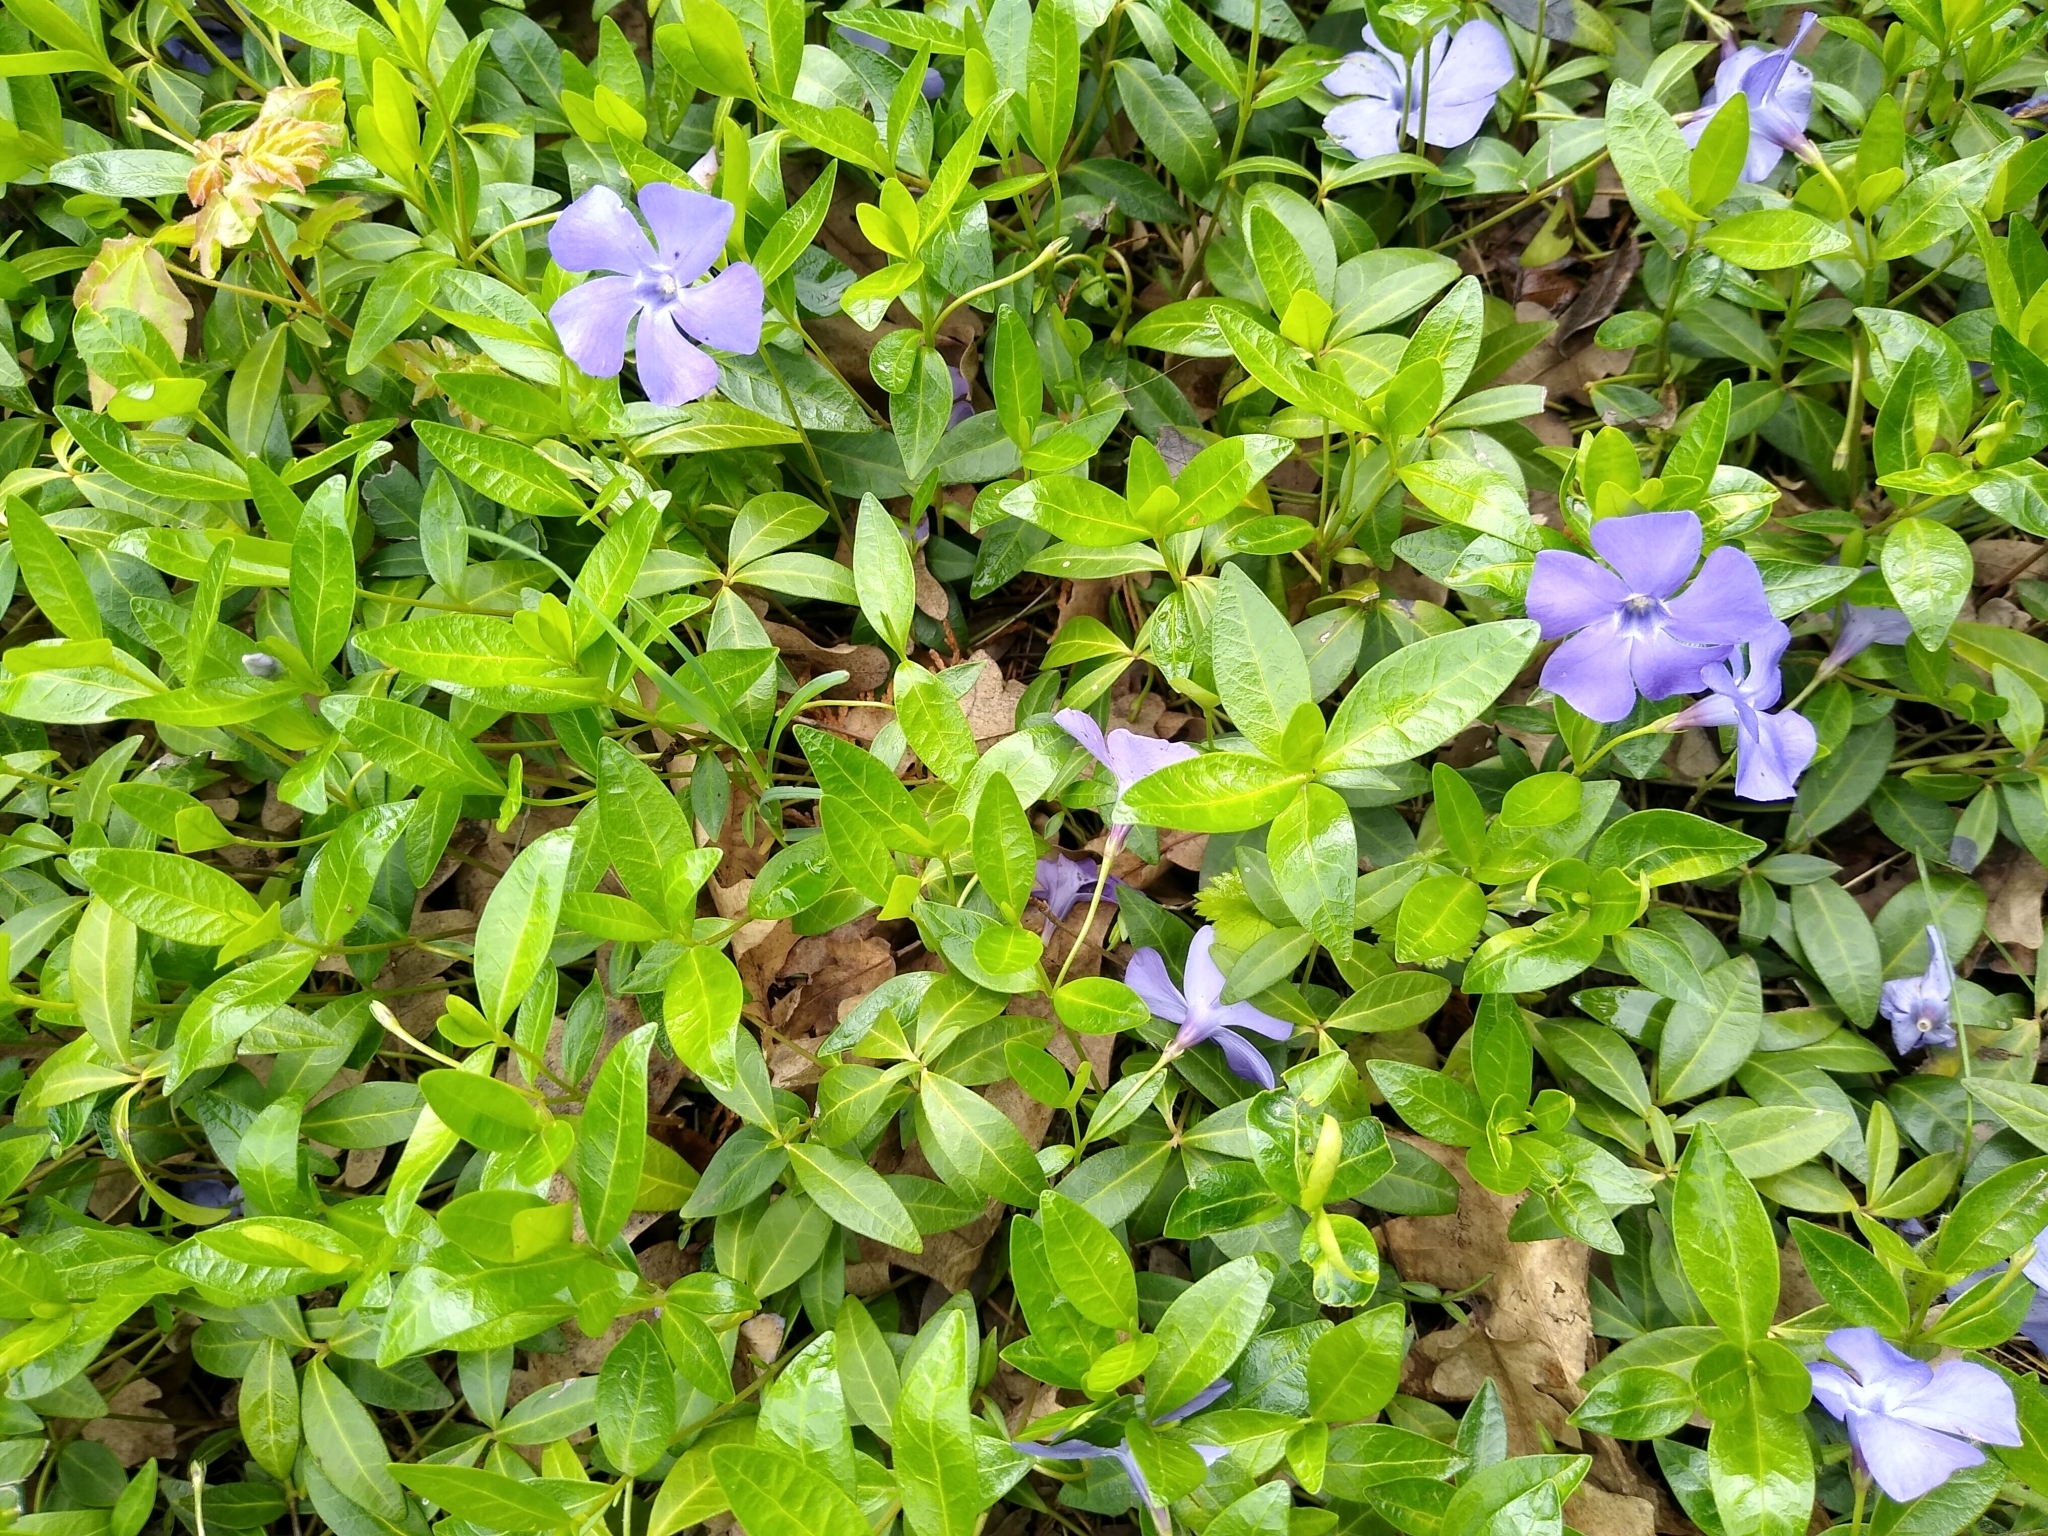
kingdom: Plantae
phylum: Tracheophyta
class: Magnoliopsida
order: Gentianales
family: Apocynaceae
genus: Vinca
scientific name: Vinca minor
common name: Lesser periwinkle
